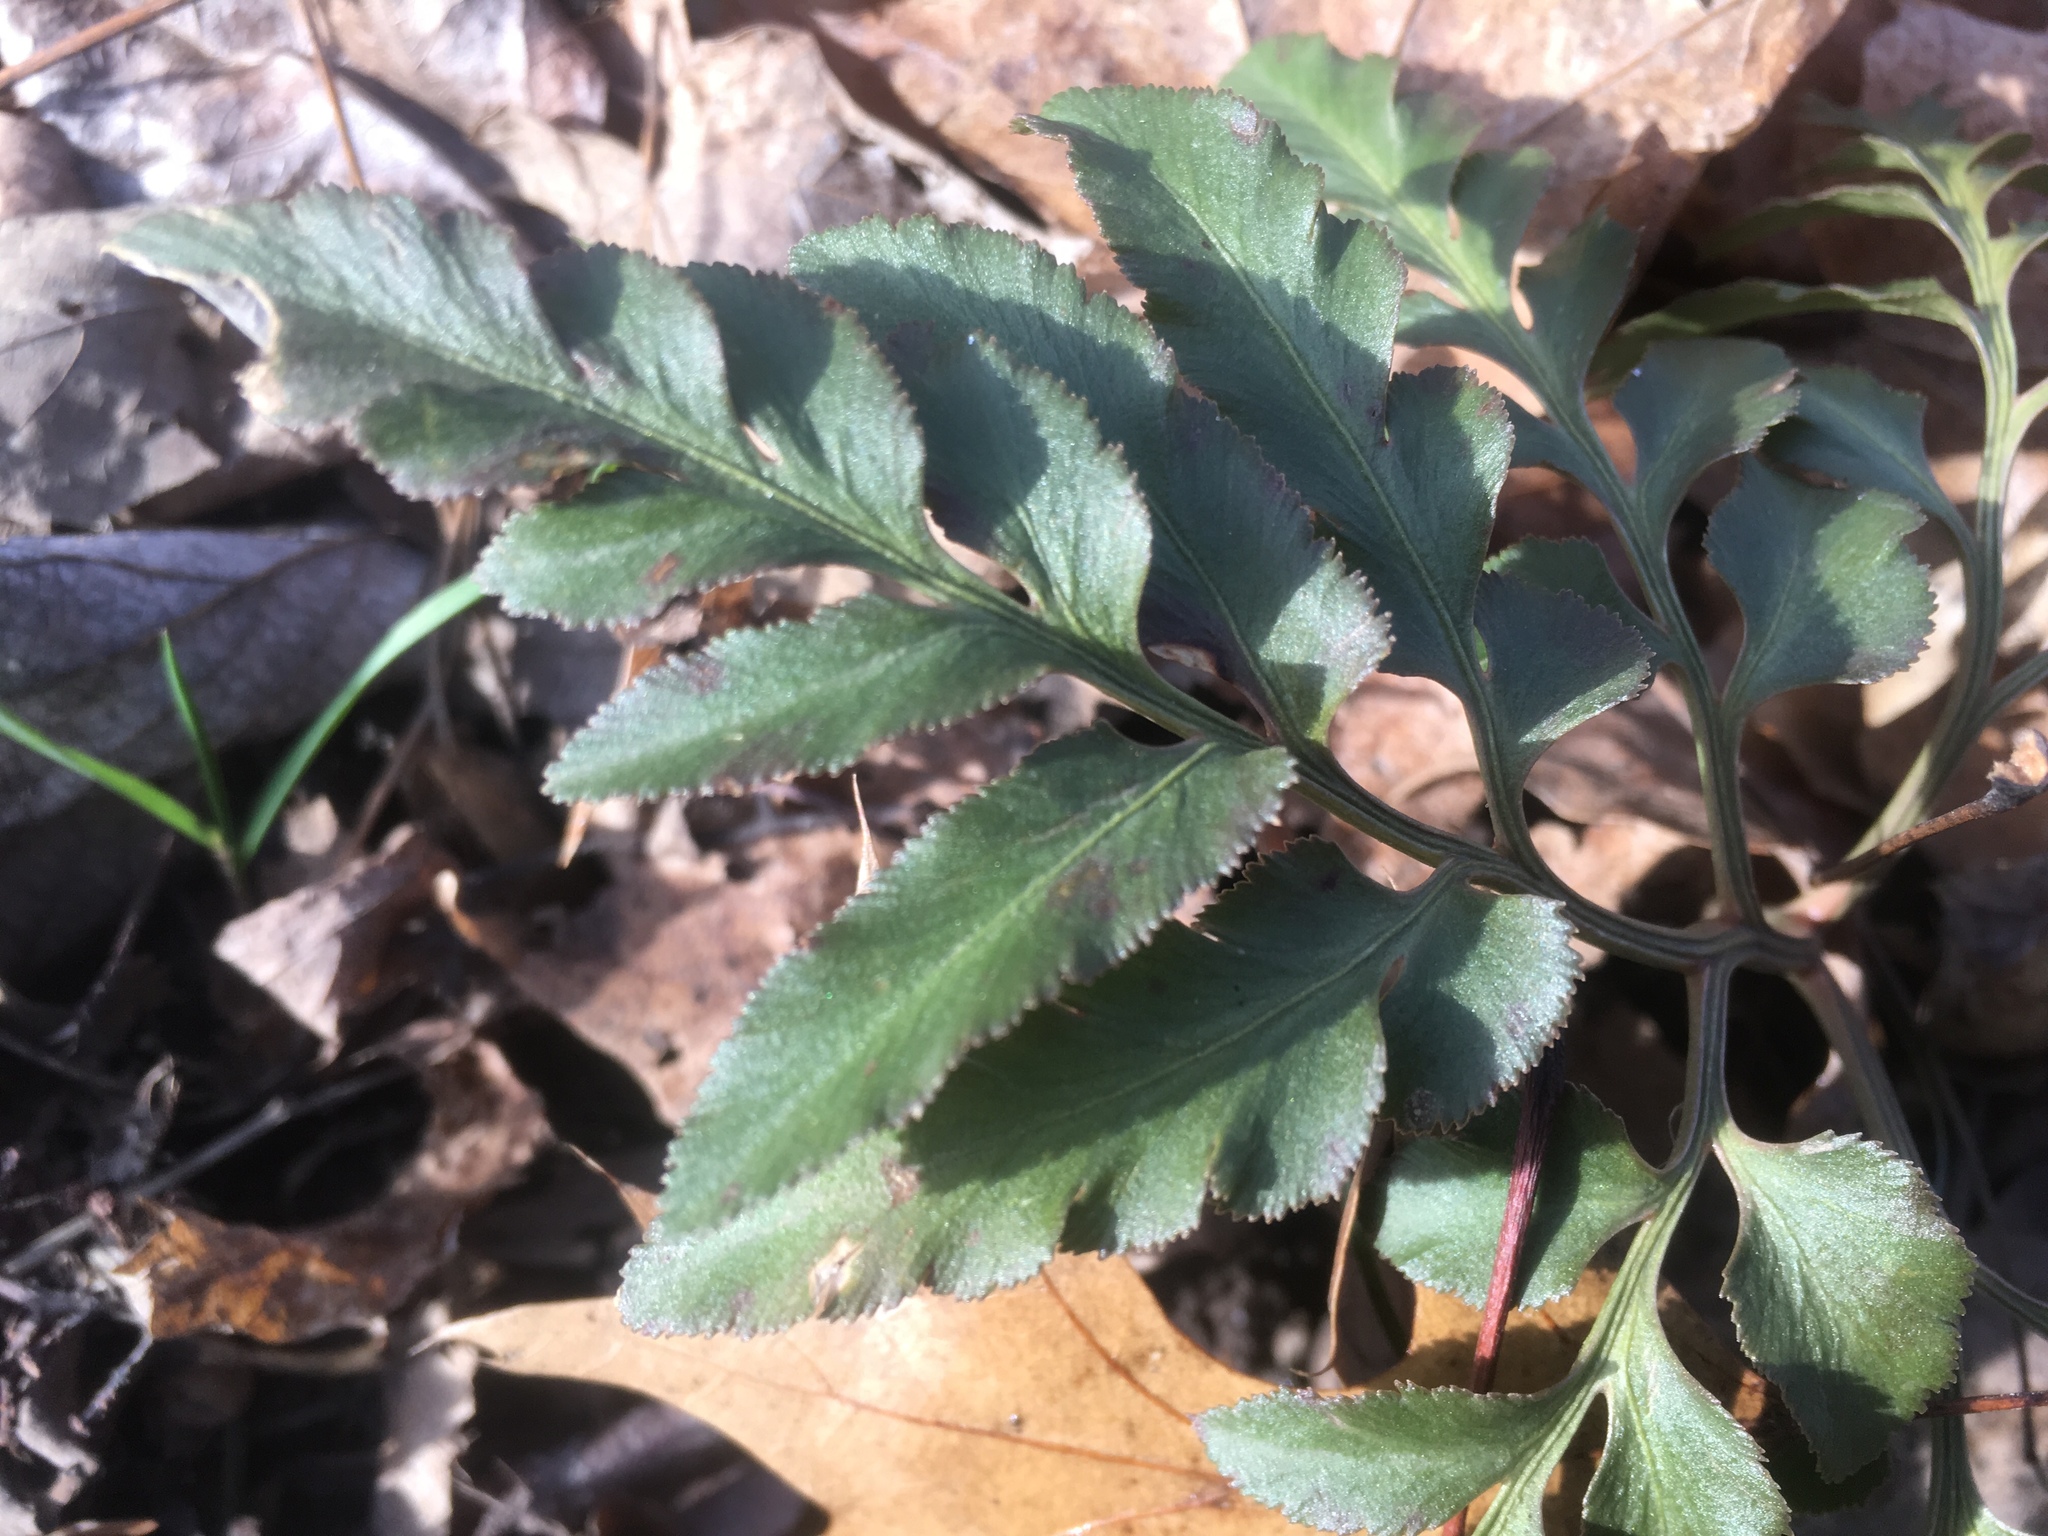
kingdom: Plantae
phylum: Tracheophyta
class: Polypodiopsida
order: Ophioglossales
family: Ophioglossaceae
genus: Sceptridium
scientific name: Sceptridium dissectum
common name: Cut-leaved grapefern
